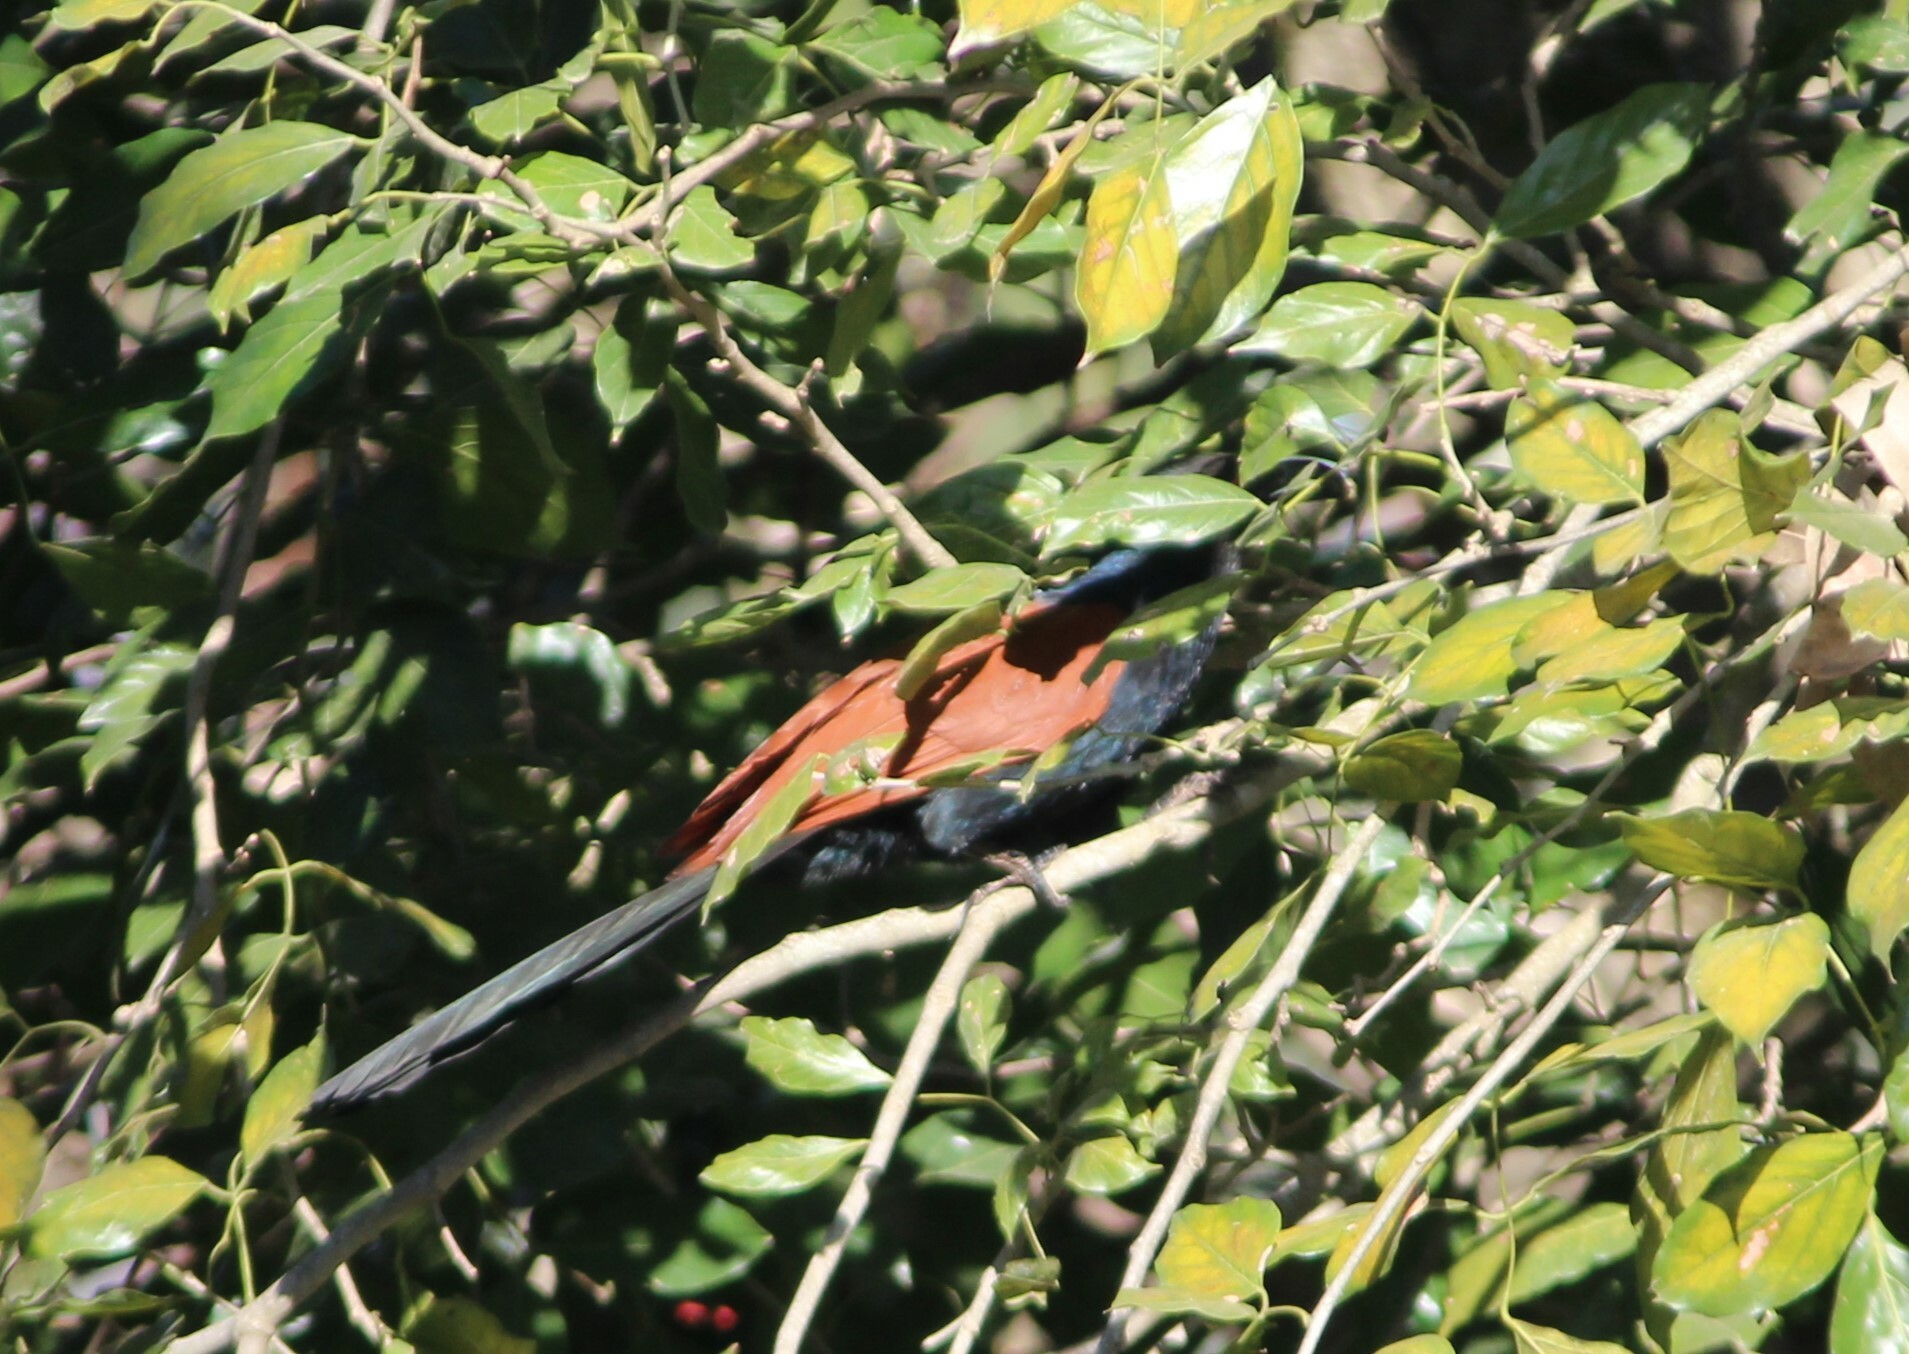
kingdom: Animalia
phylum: Chordata
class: Aves
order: Cuculiformes
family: Cuculidae
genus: Centropus
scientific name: Centropus sinensis
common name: Greater coucal
